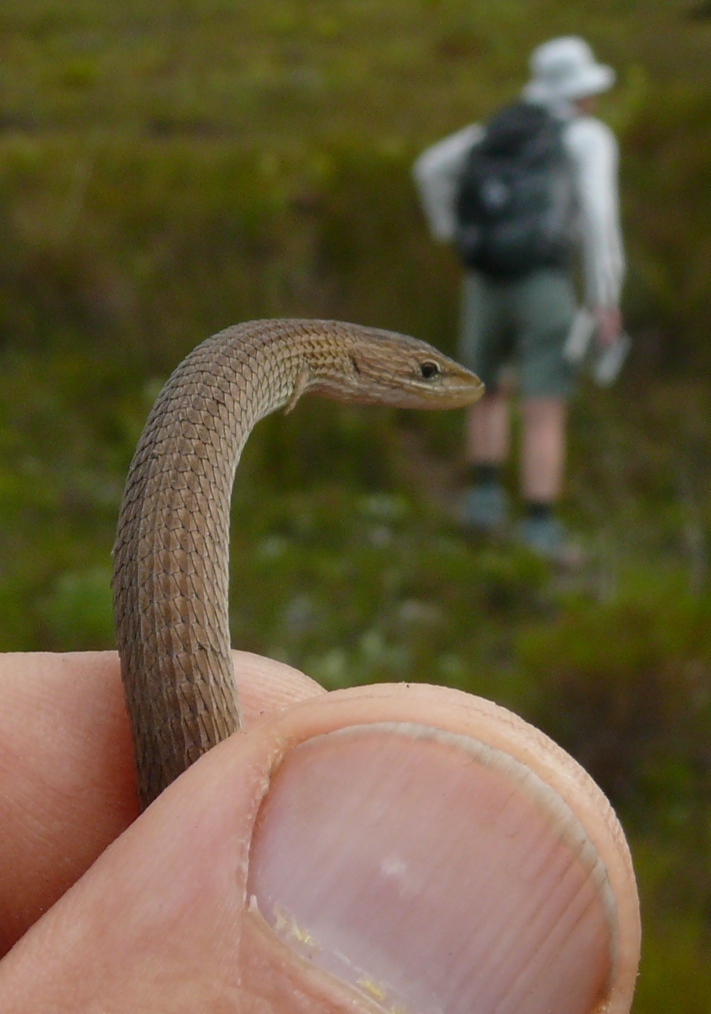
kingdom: Animalia
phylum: Chordata
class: Squamata
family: Cordylidae
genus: Chamaesaura
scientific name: Chamaesaura anguina
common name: Cape snake lizard
